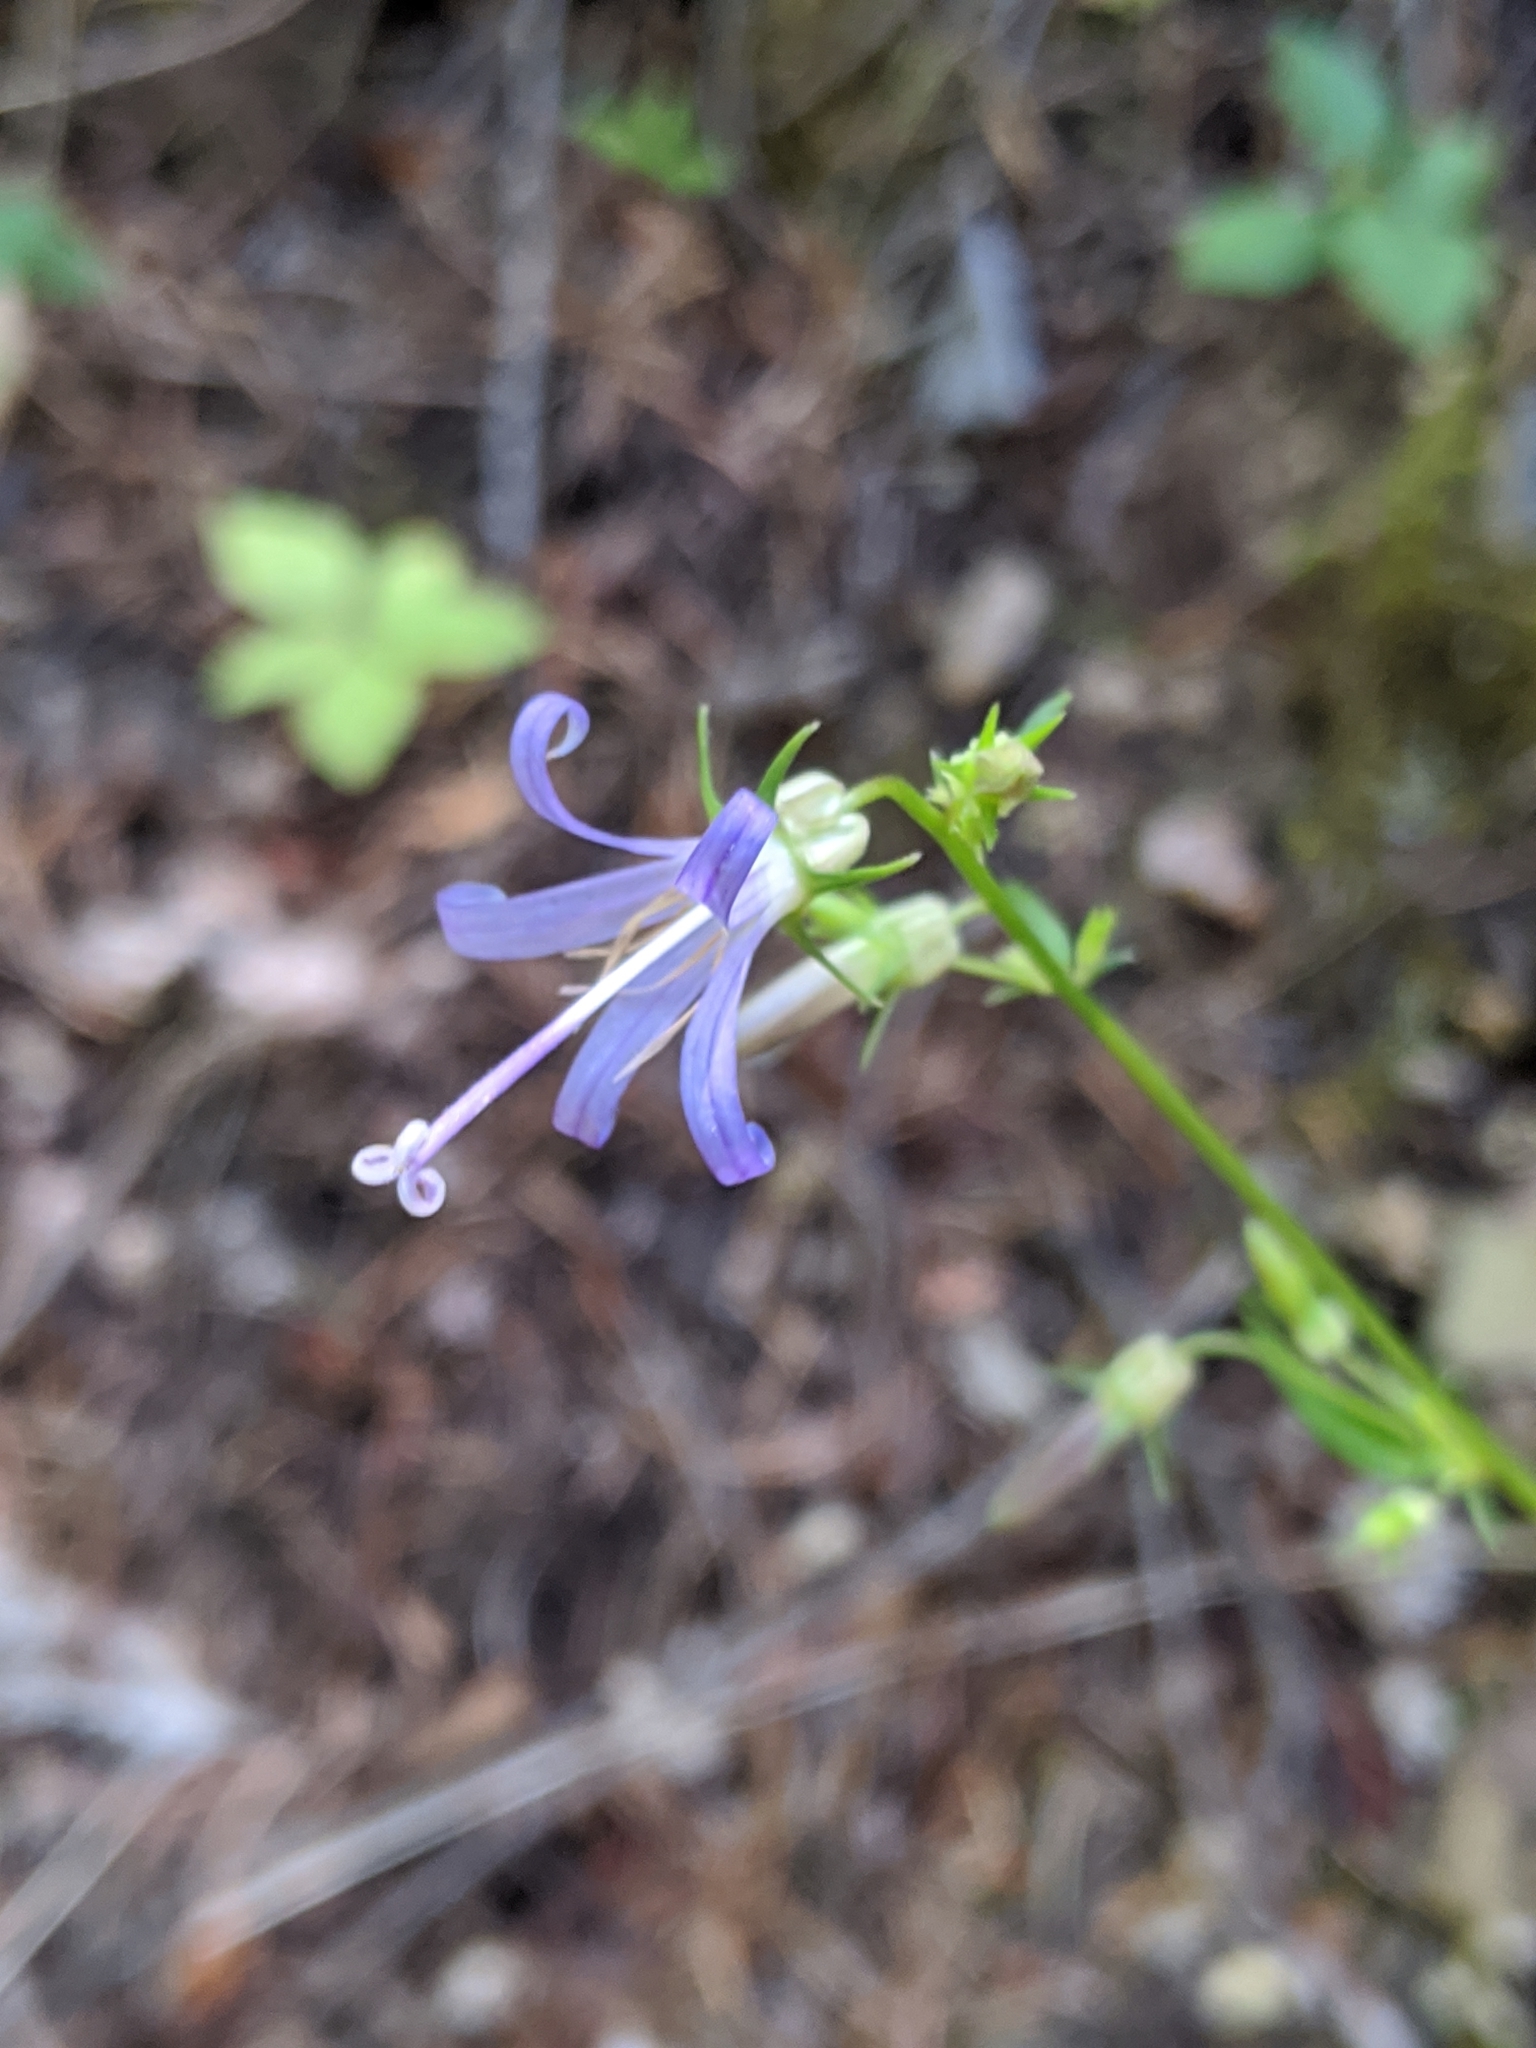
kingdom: Plantae
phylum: Tracheophyta
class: Magnoliopsida
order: Asterales
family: Campanulaceae
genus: Smithiastrum
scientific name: Smithiastrum prenanthoides
